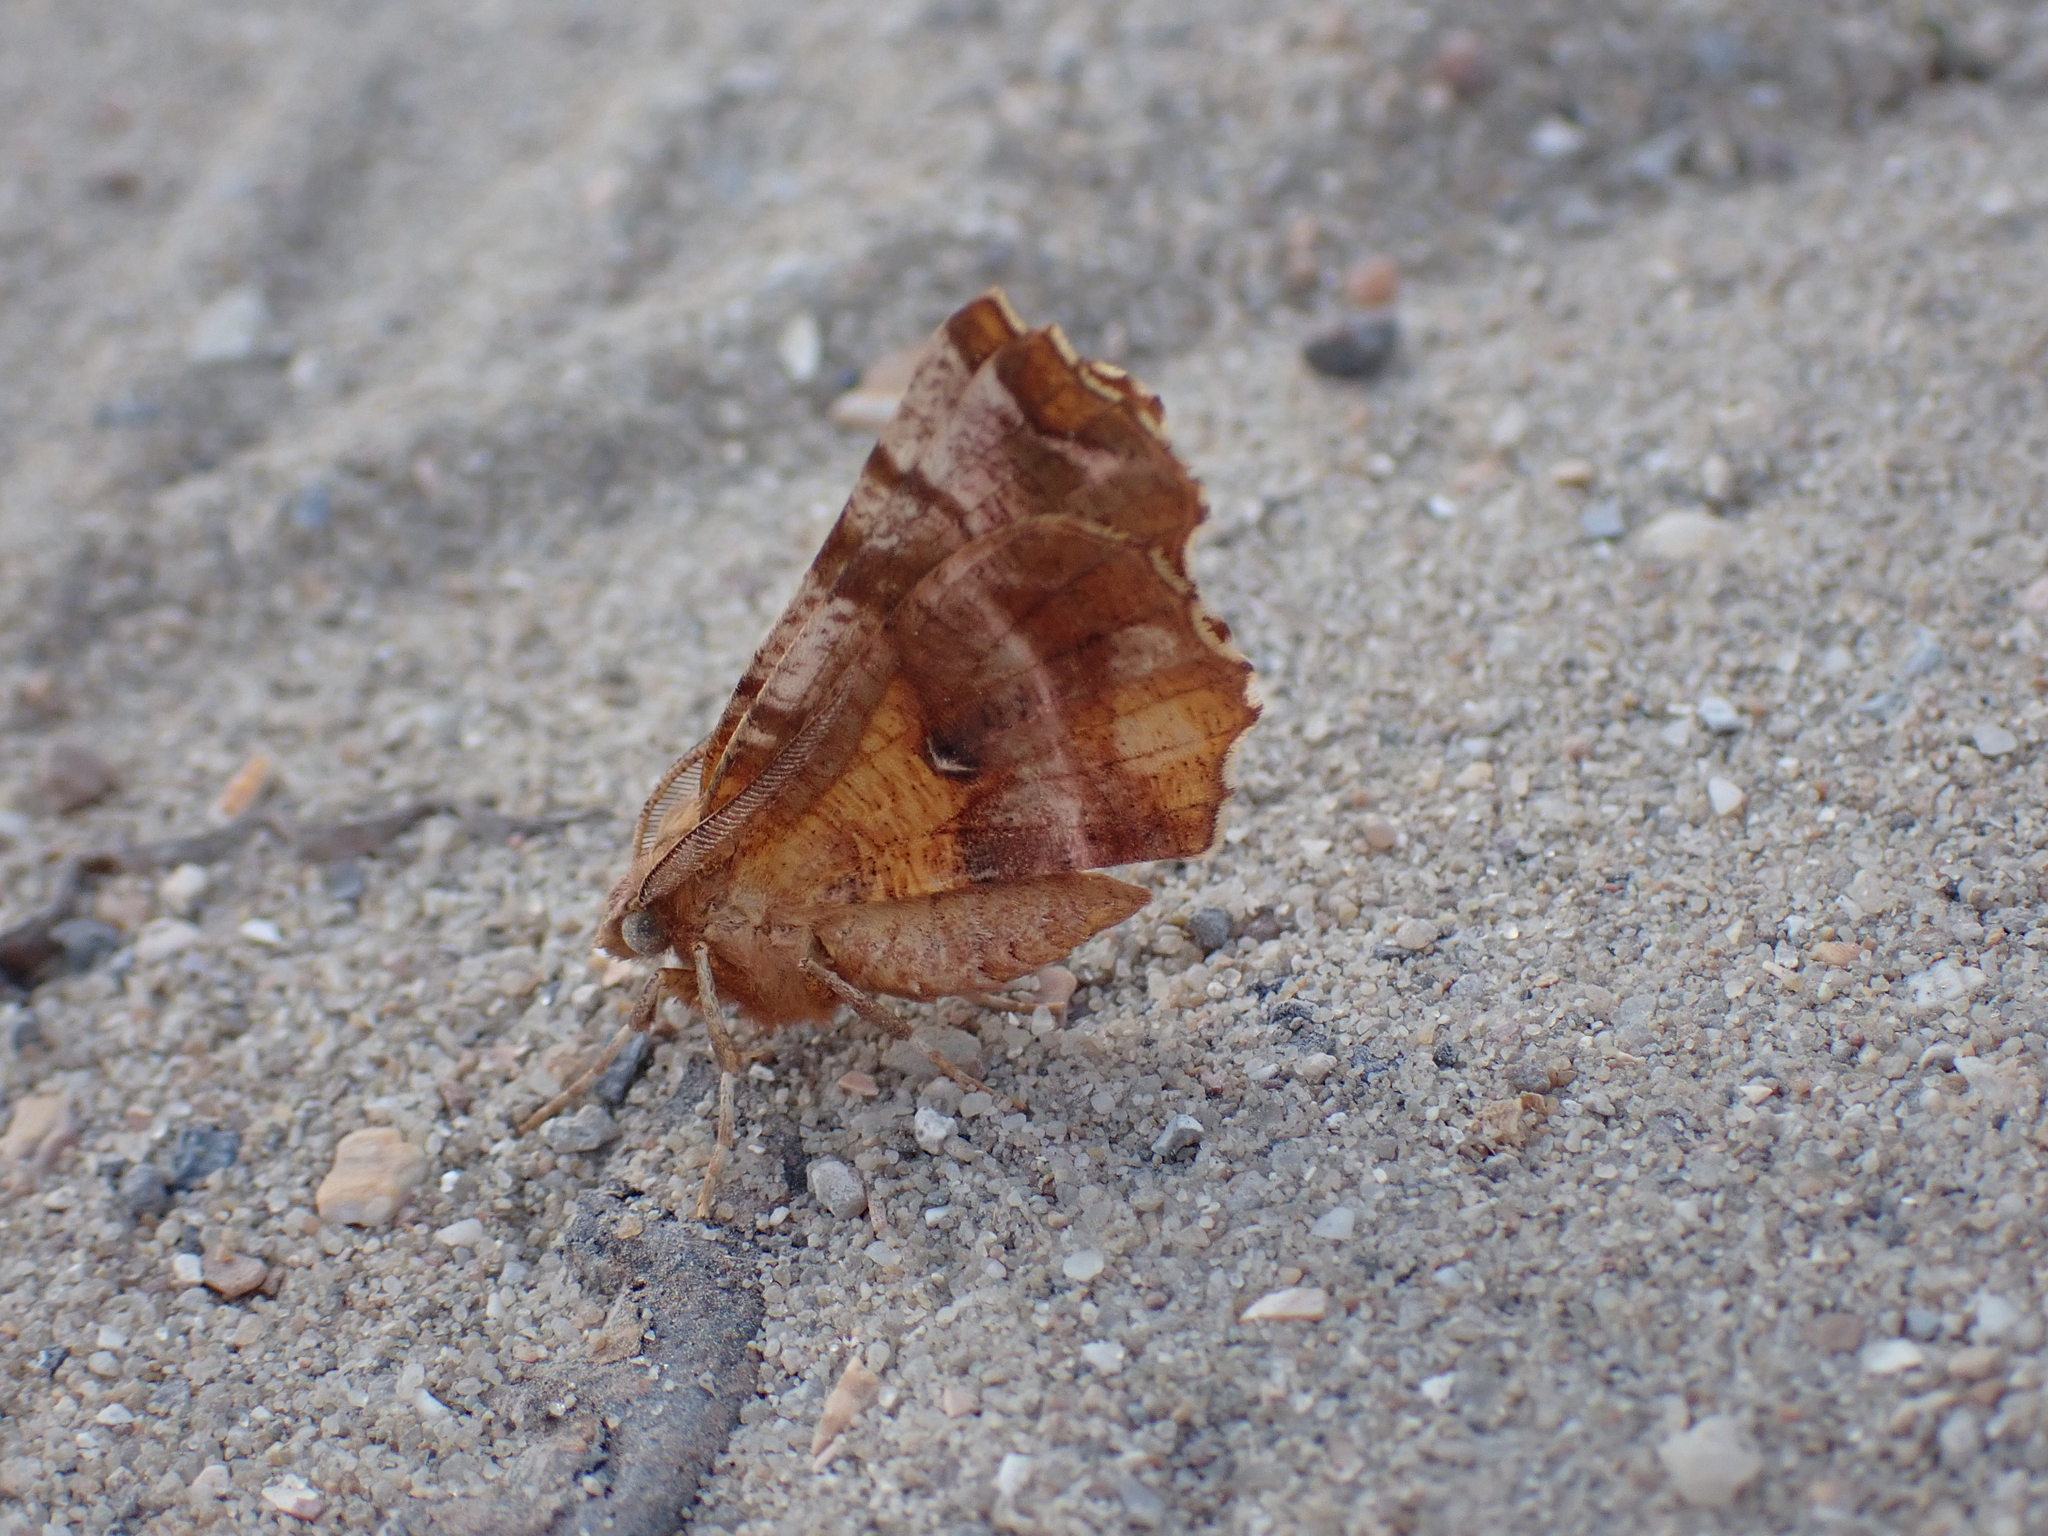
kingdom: Animalia
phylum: Arthropoda
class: Insecta
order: Lepidoptera
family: Geometridae
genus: Selenia
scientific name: Selenia dentaria
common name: Early thorn
